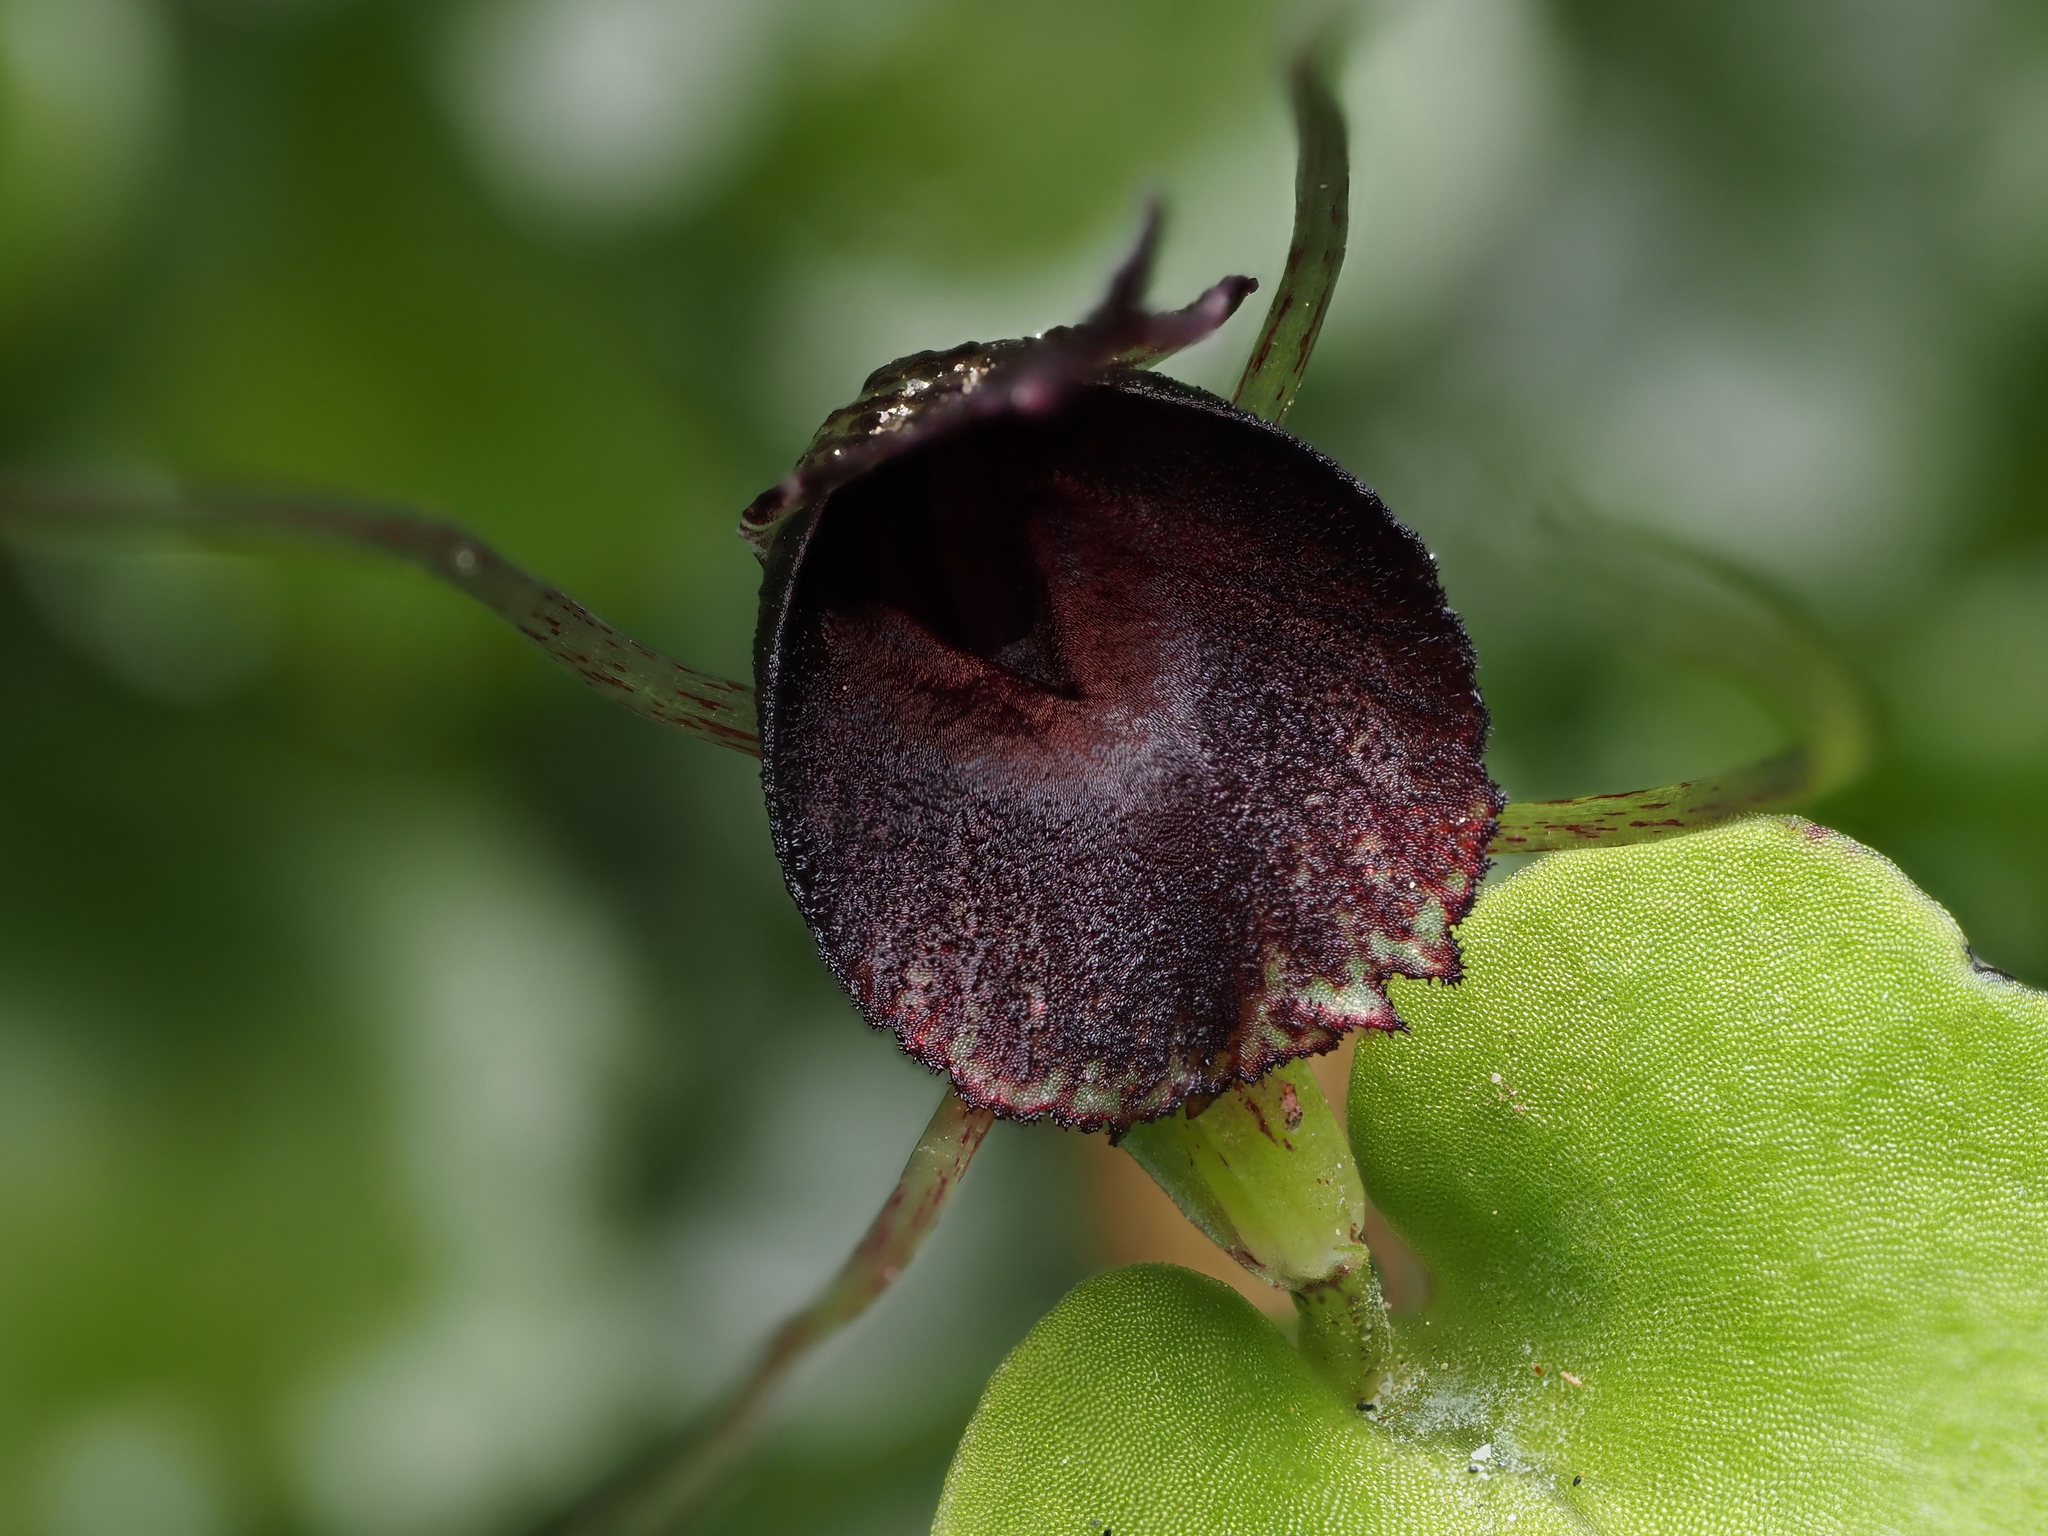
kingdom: Plantae
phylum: Tracheophyta
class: Liliopsida
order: Asparagales
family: Orchidaceae
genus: Corybas
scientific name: Corybas iridescens
